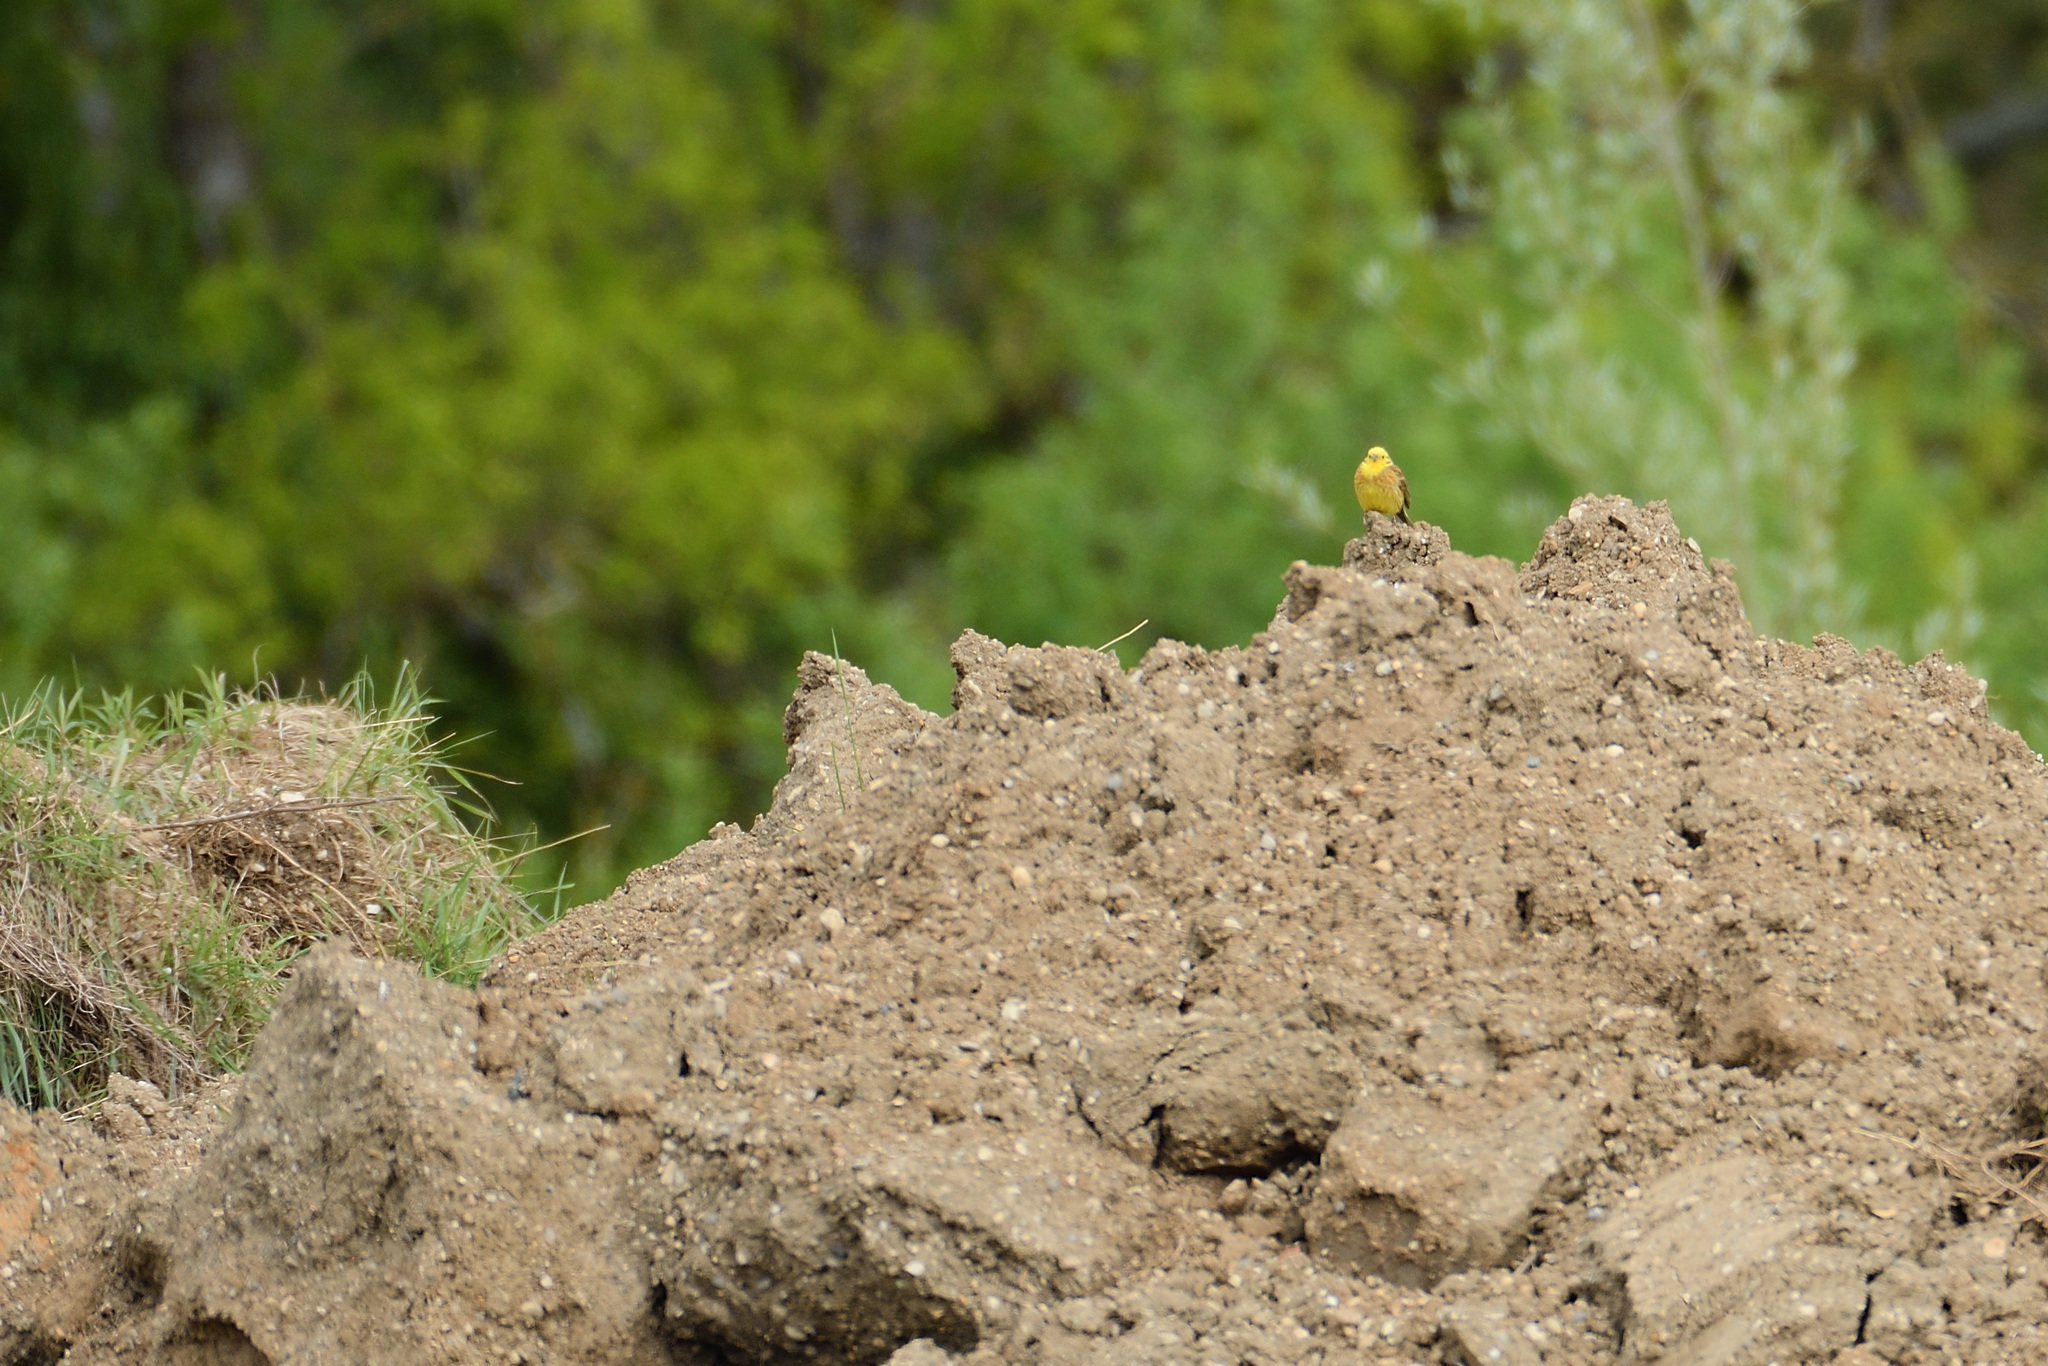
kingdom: Animalia
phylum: Chordata
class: Aves
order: Passeriformes
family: Emberizidae
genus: Emberiza
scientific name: Emberiza citrinella
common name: Yellowhammer
